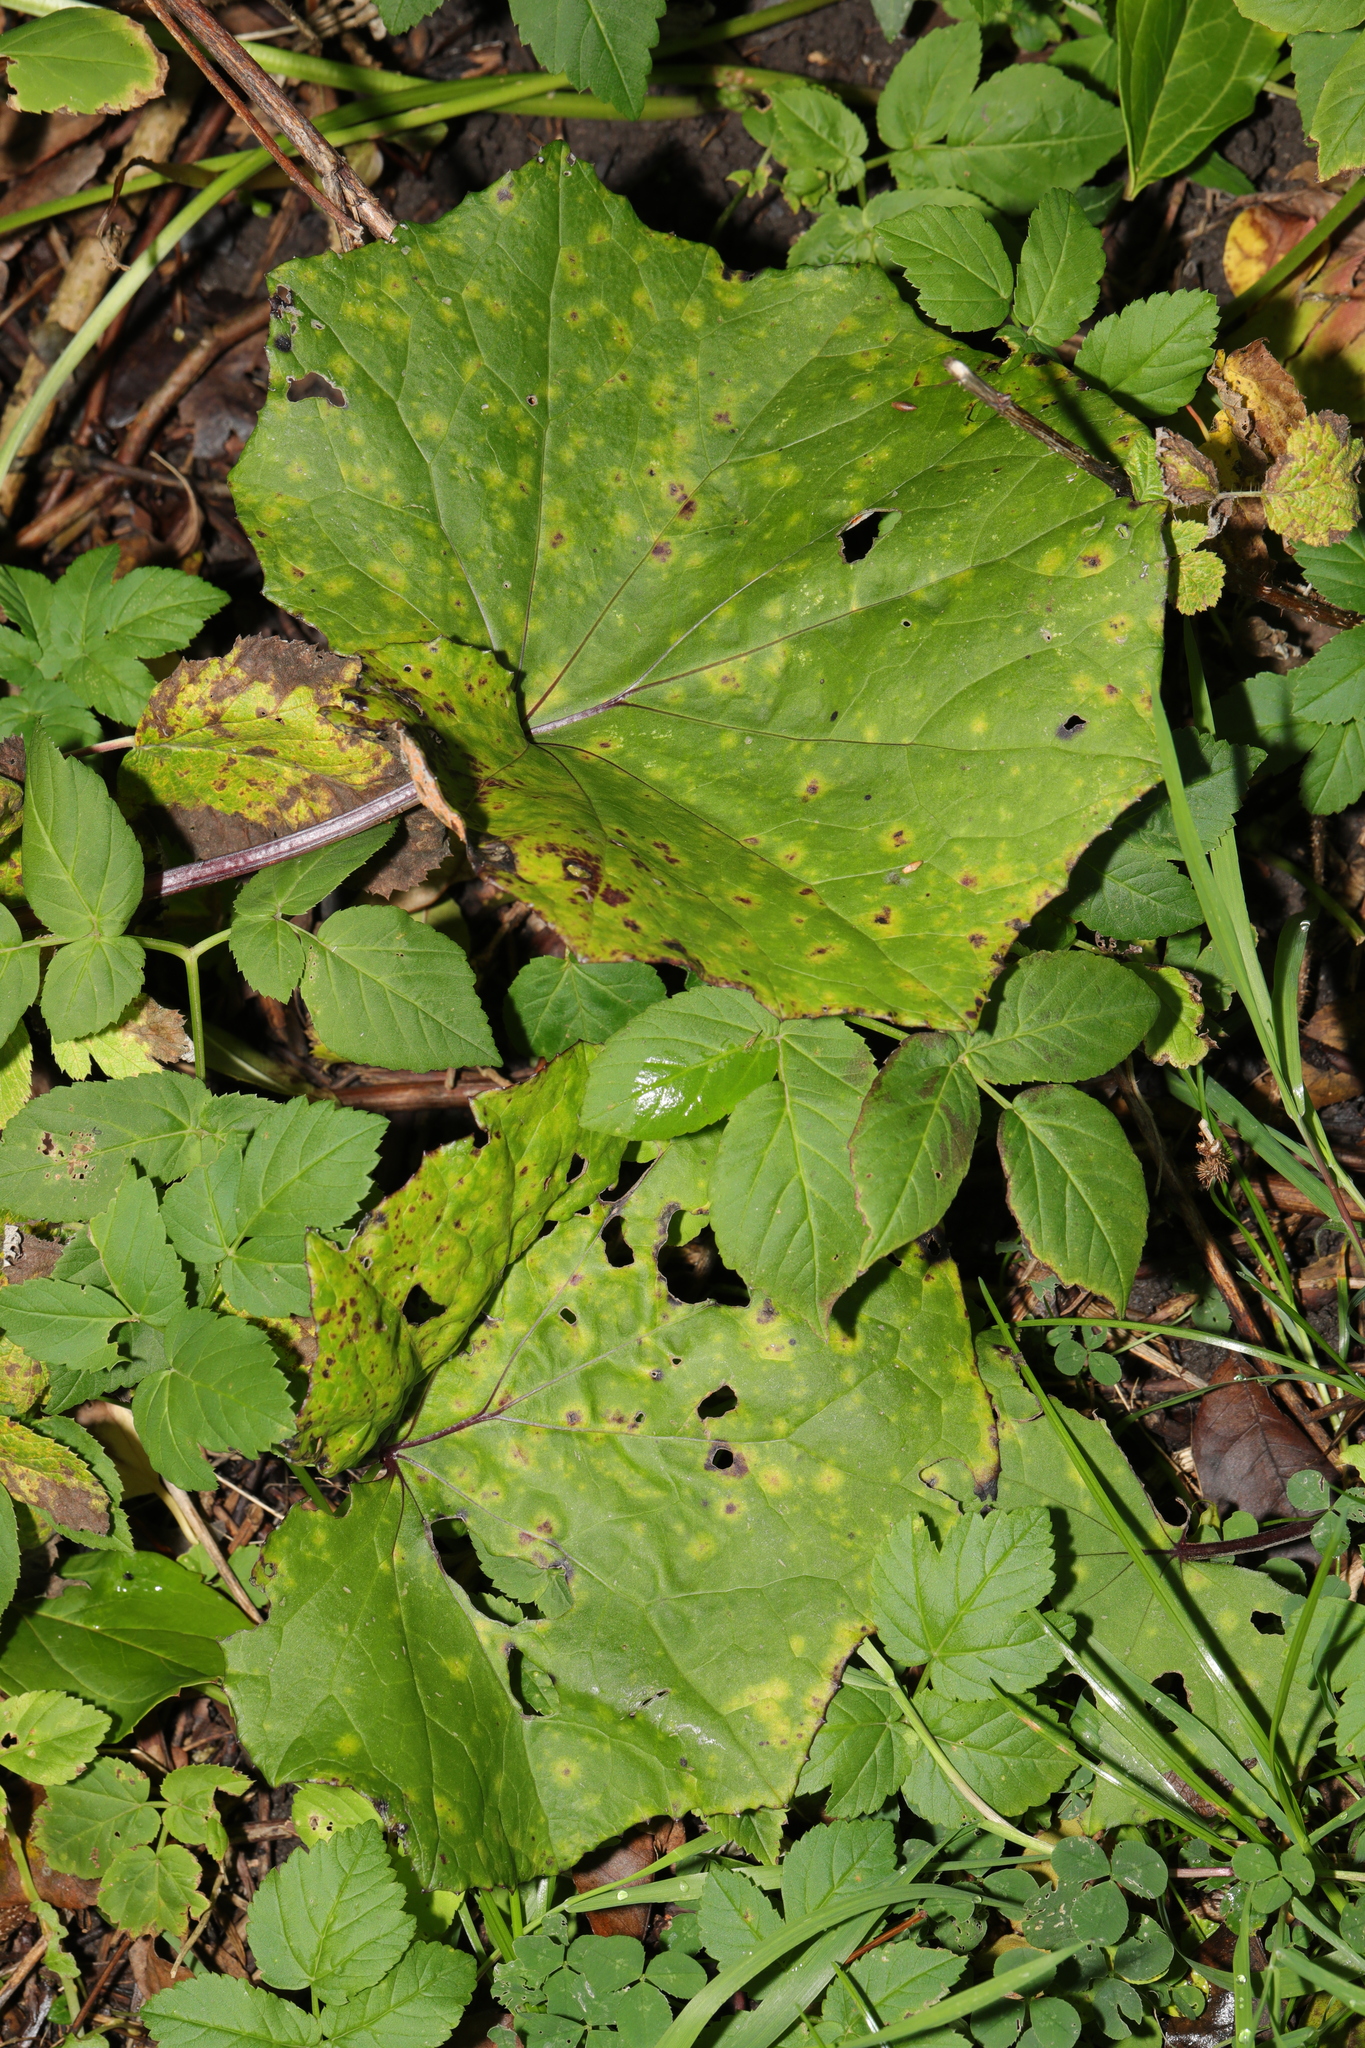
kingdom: Plantae
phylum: Tracheophyta
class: Magnoliopsida
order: Asterales
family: Asteraceae
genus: Tussilago
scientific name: Tussilago farfara
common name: Coltsfoot
